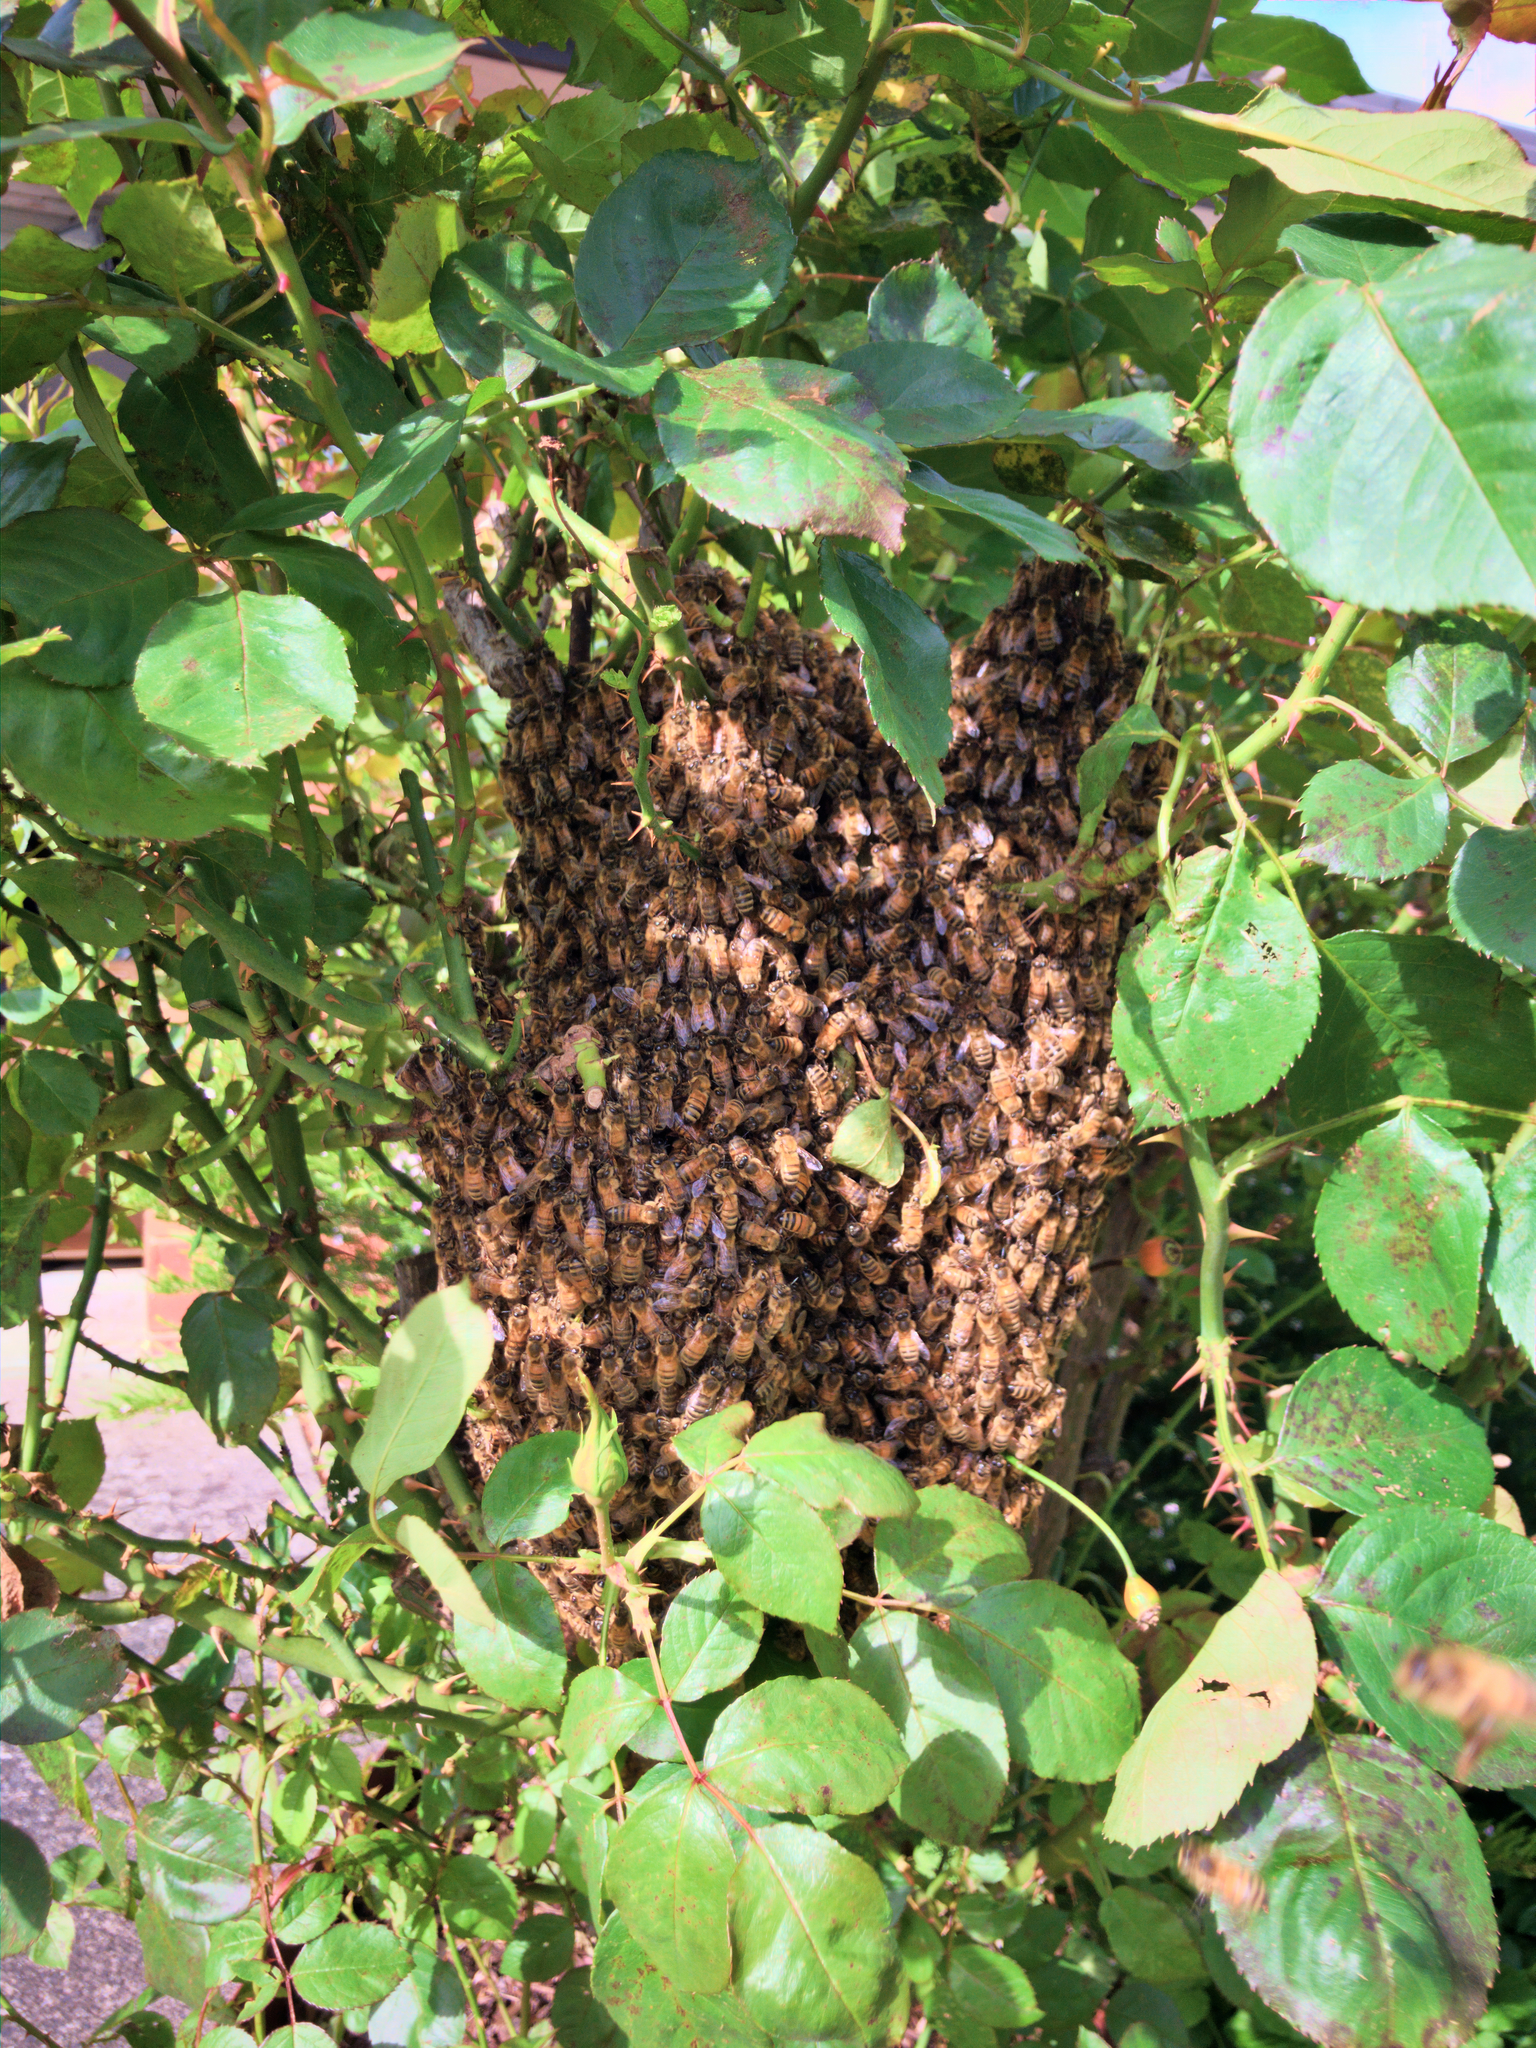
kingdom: Animalia
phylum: Arthropoda
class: Insecta
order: Hymenoptera
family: Apidae
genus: Apis
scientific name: Apis mellifera
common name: Honey bee
